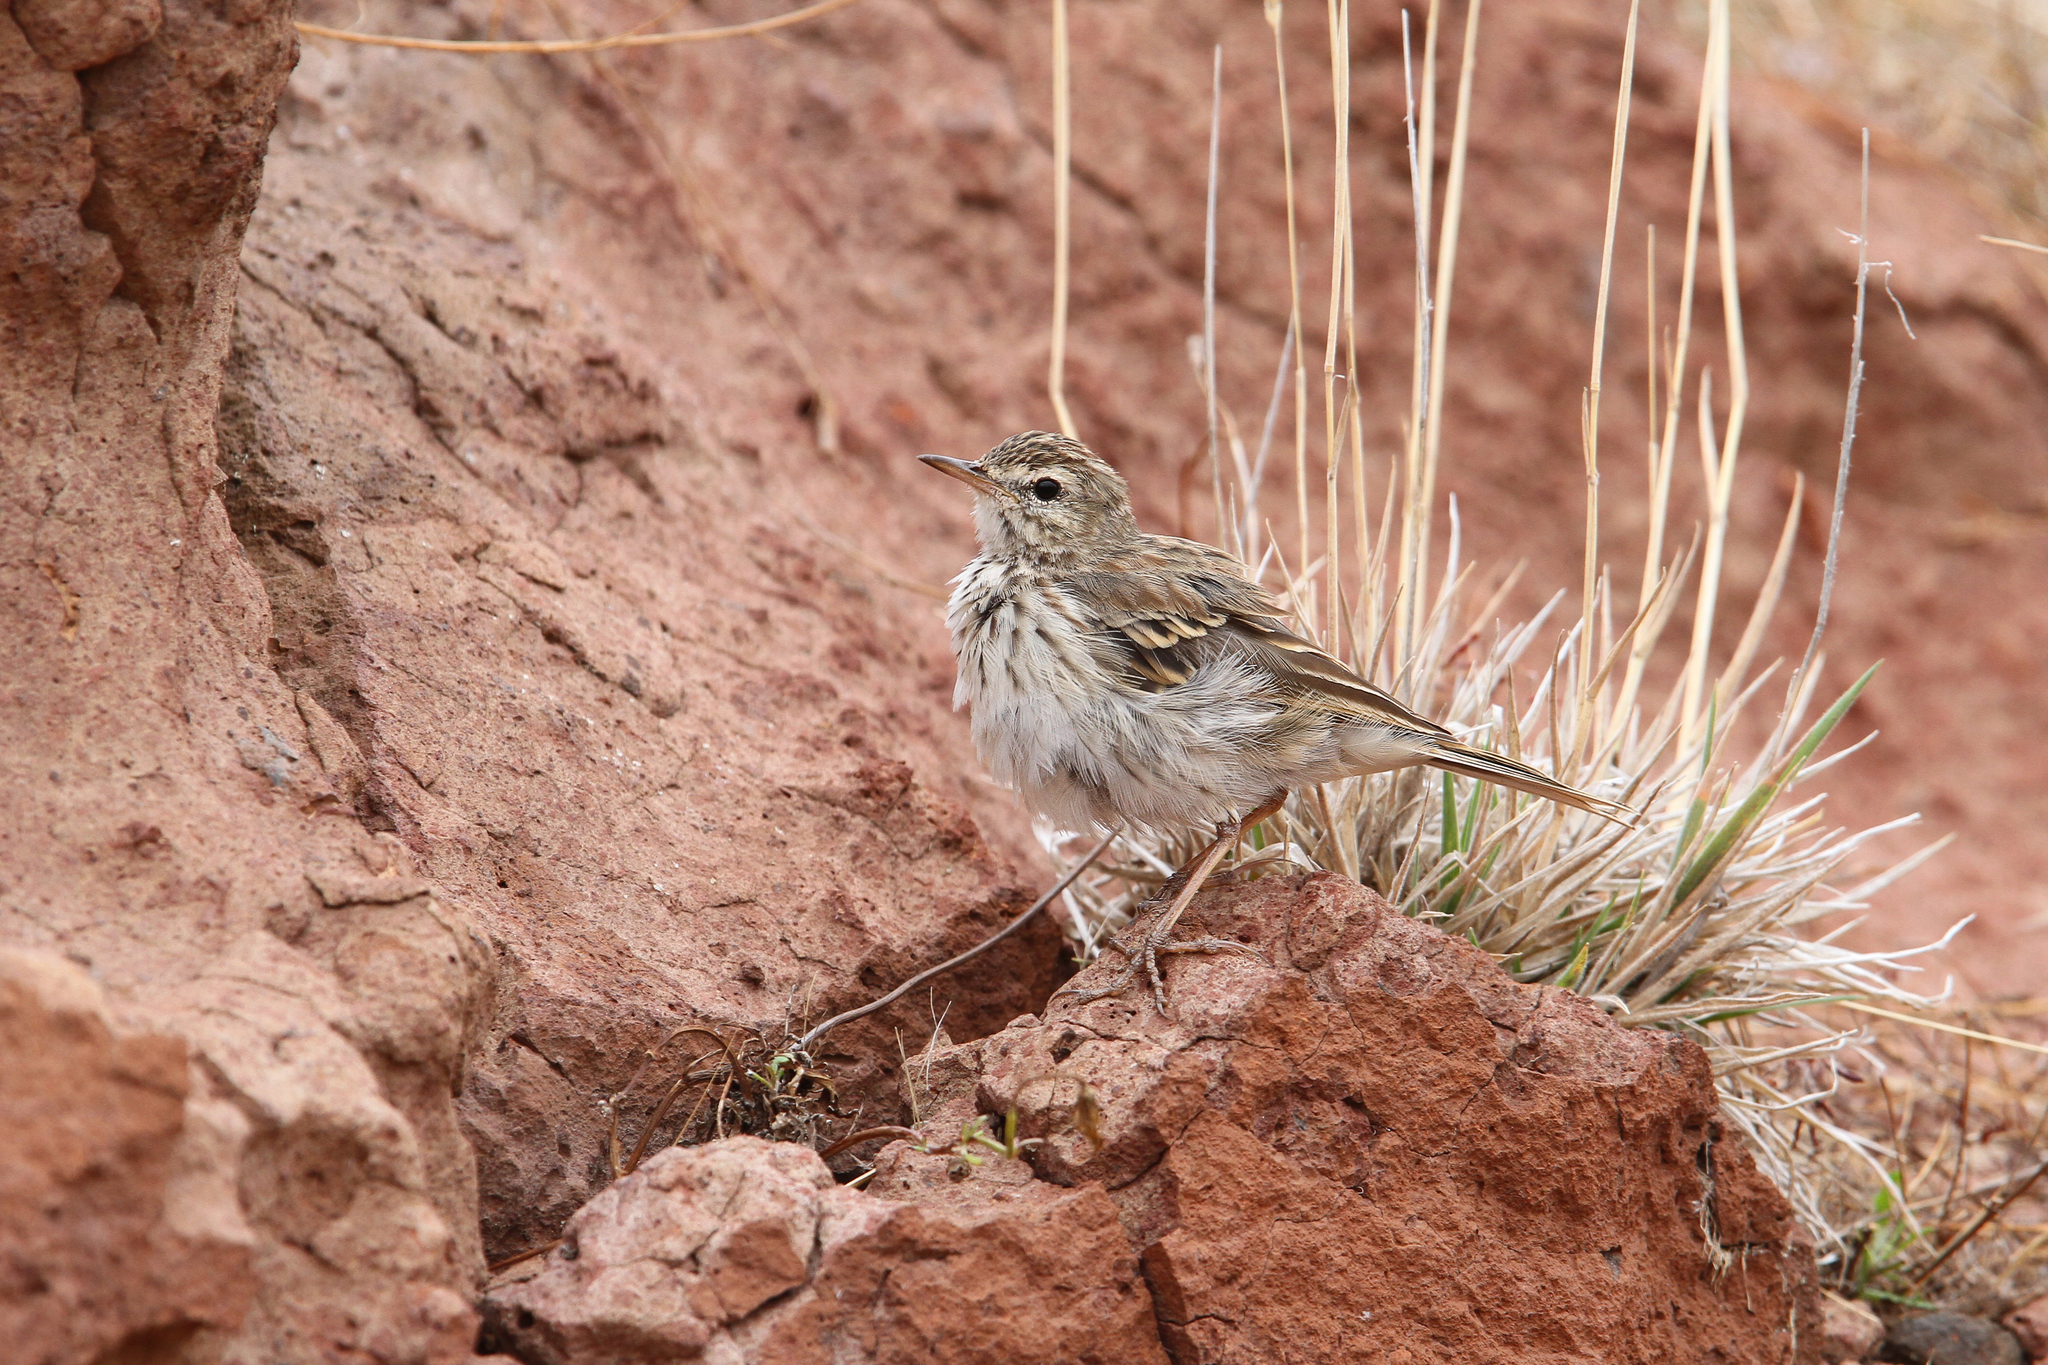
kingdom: Animalia
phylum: Chordata
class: Aves
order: Passeriformes
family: Motacillidae
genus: Anthus
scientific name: Anthus berthelotii
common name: Berthelot's pipit
